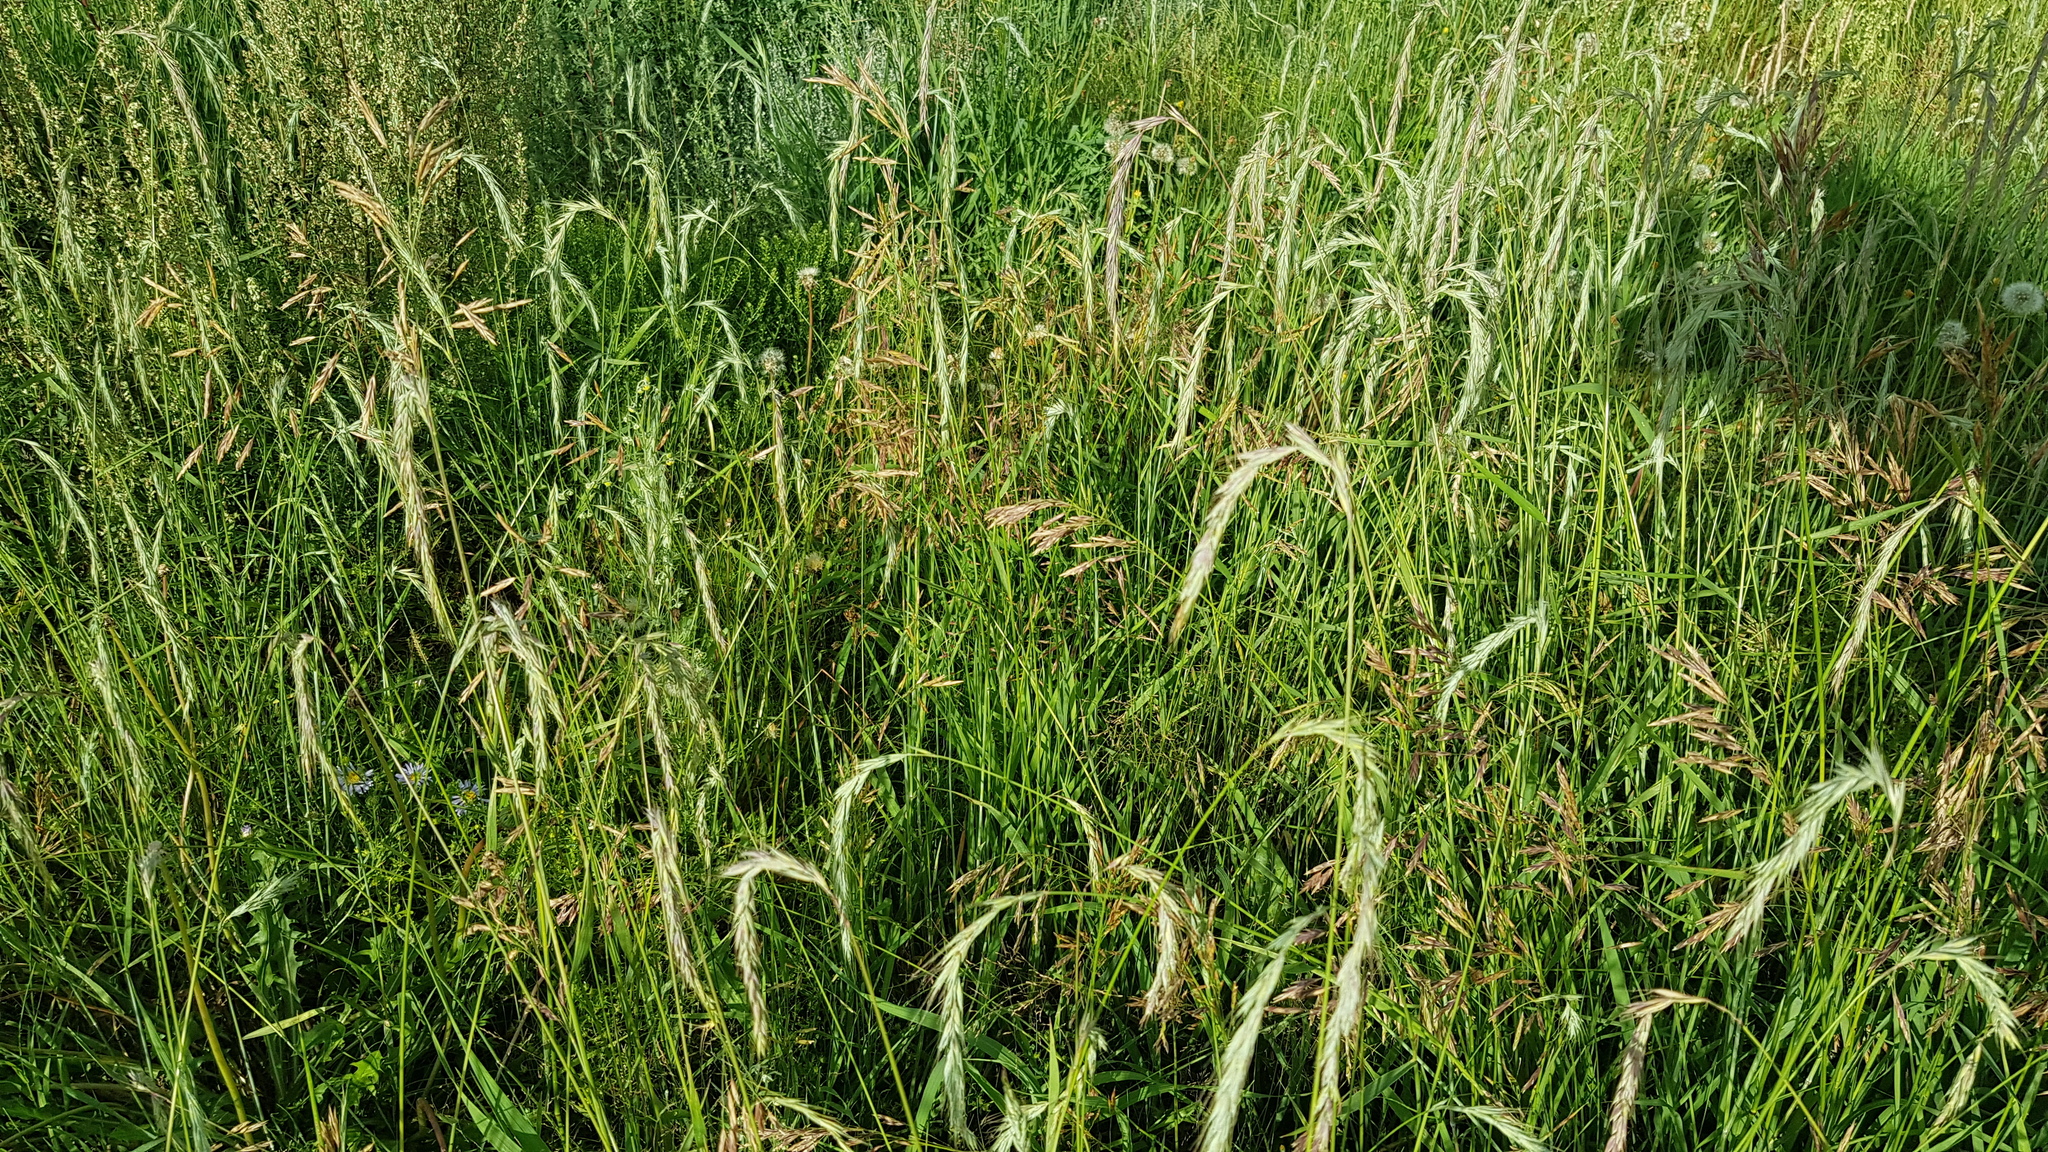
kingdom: Plantae
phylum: Tracheophyta
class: Liliopsida
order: Poales
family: Poaceae
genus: Elymus
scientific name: Elymus sibiricus
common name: Siberian wildrye
